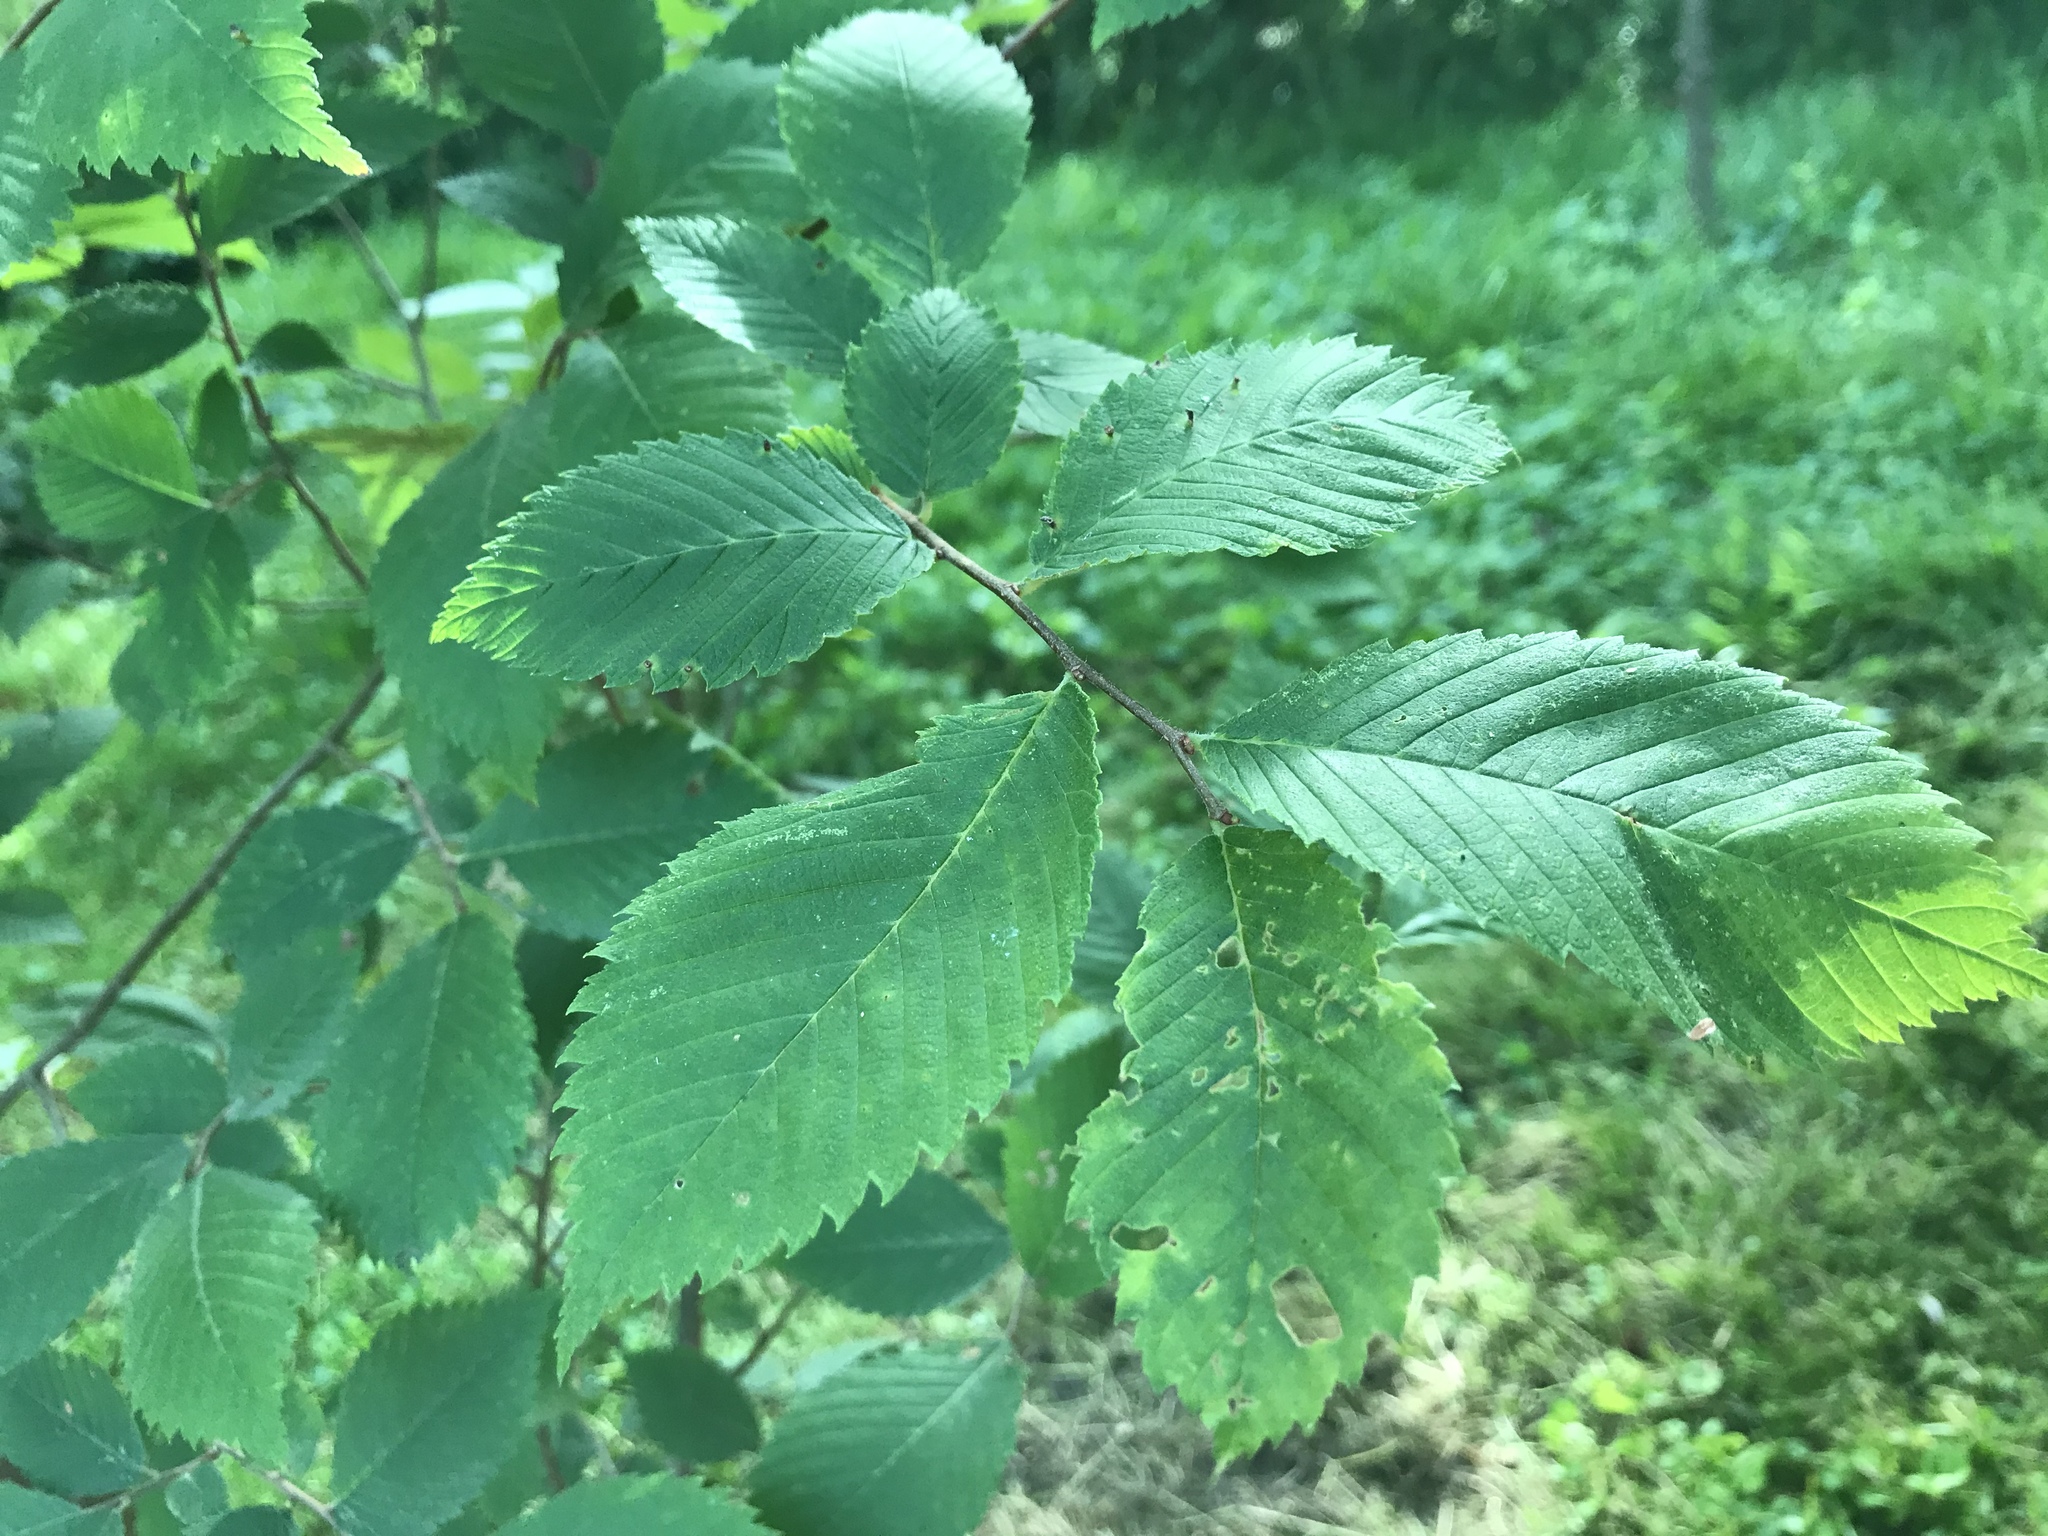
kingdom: Plantae
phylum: Tracheophyta
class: Magnoliopsida
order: Rosales
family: Ulmaceae
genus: Ulmus
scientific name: Ulmus americana
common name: American elm
